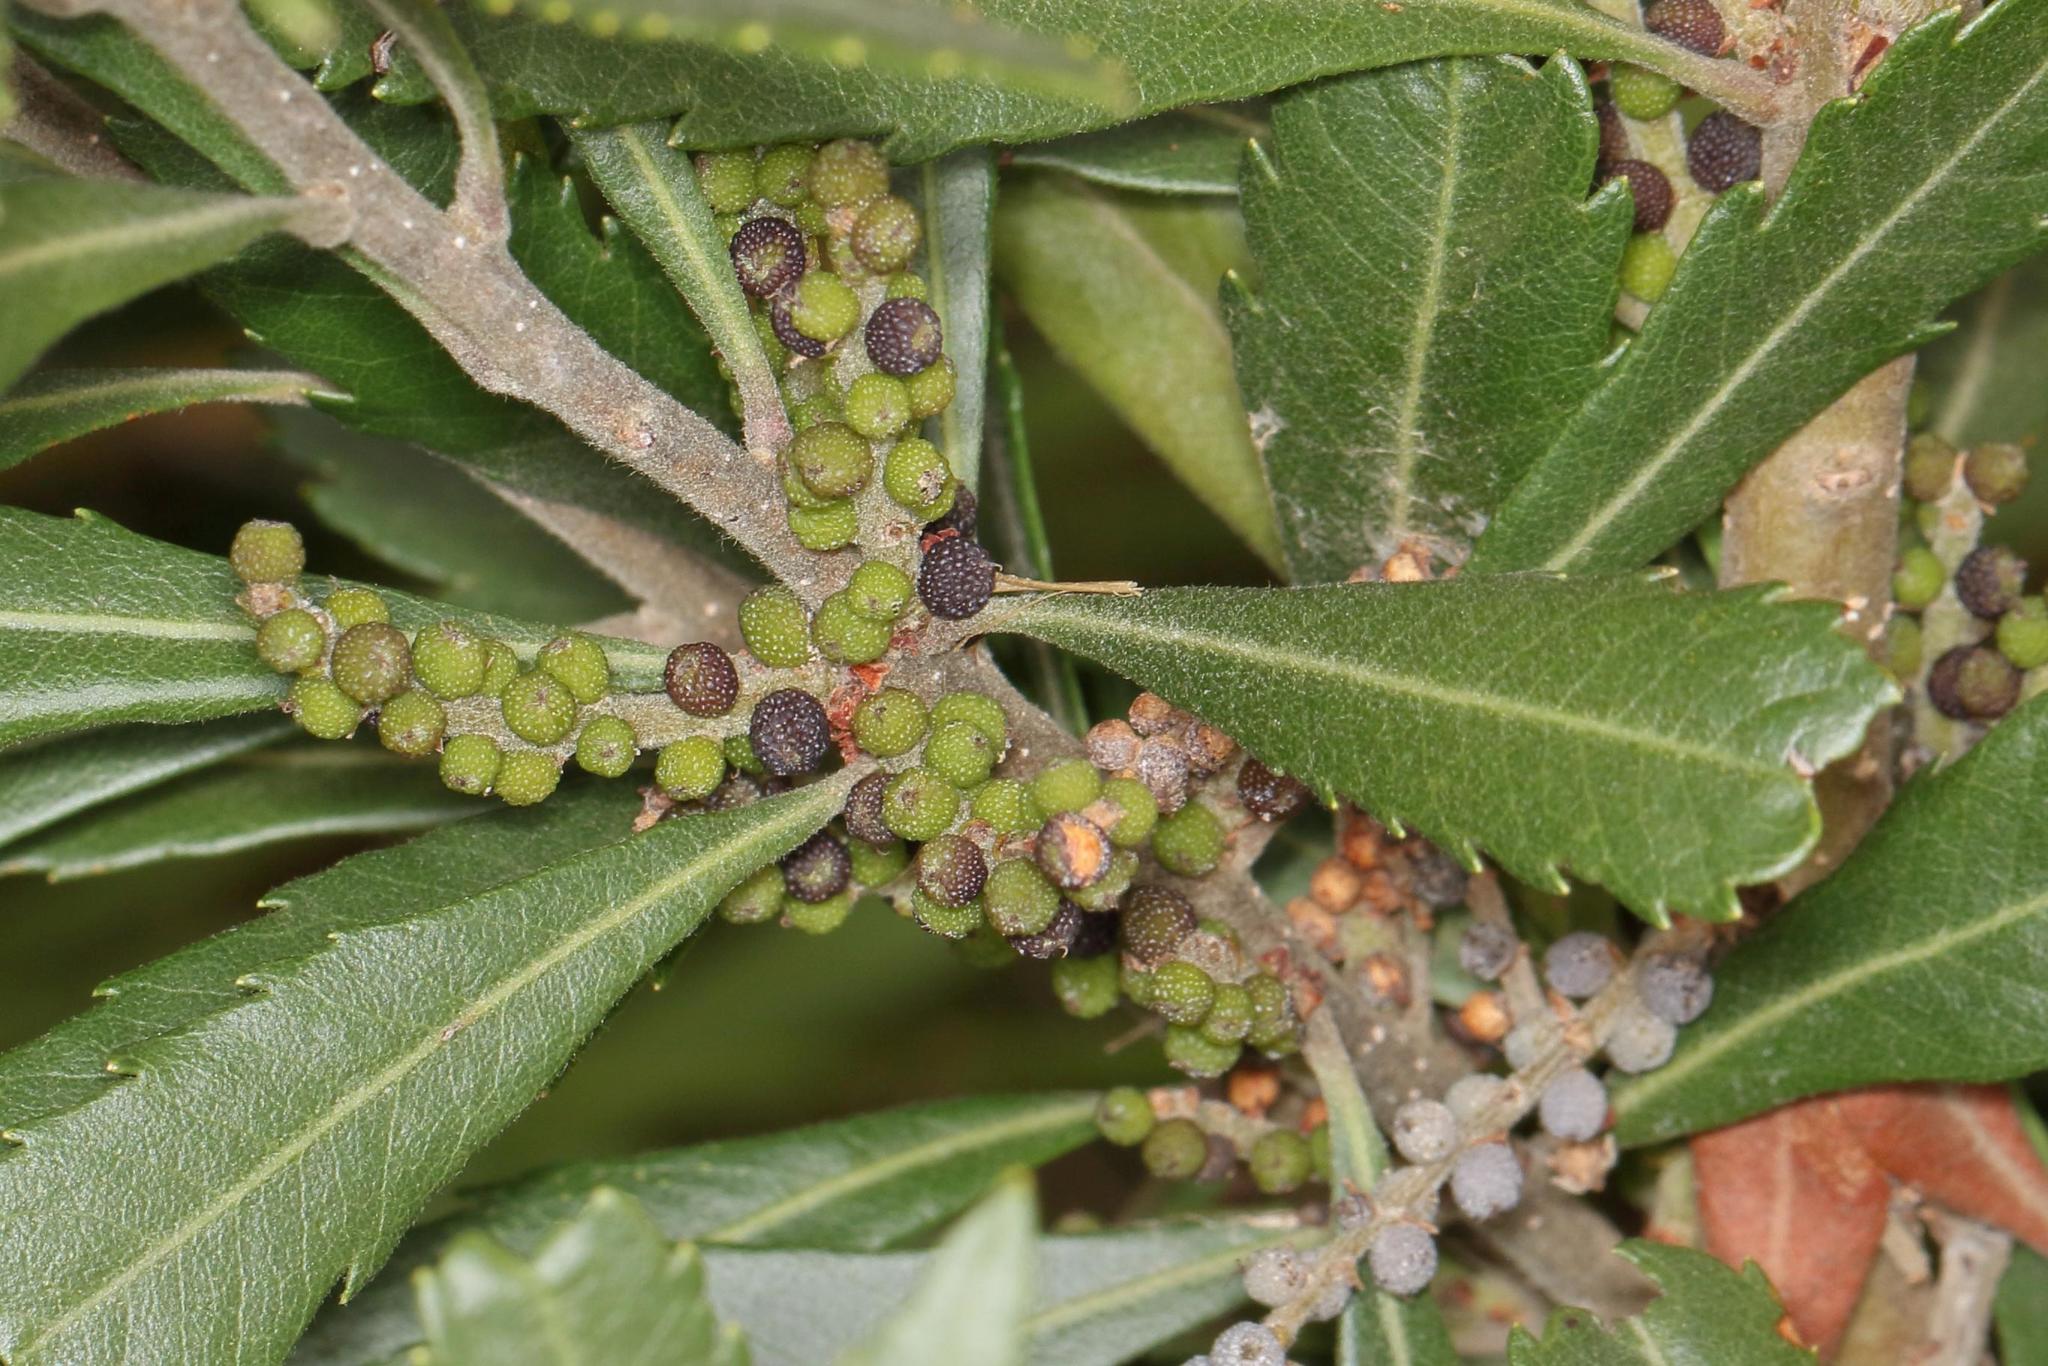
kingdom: Plantae
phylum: Tracheophyta
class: Magnoliopsida
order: Fagales
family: Myricaceae
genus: Morella
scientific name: Morella serrata
